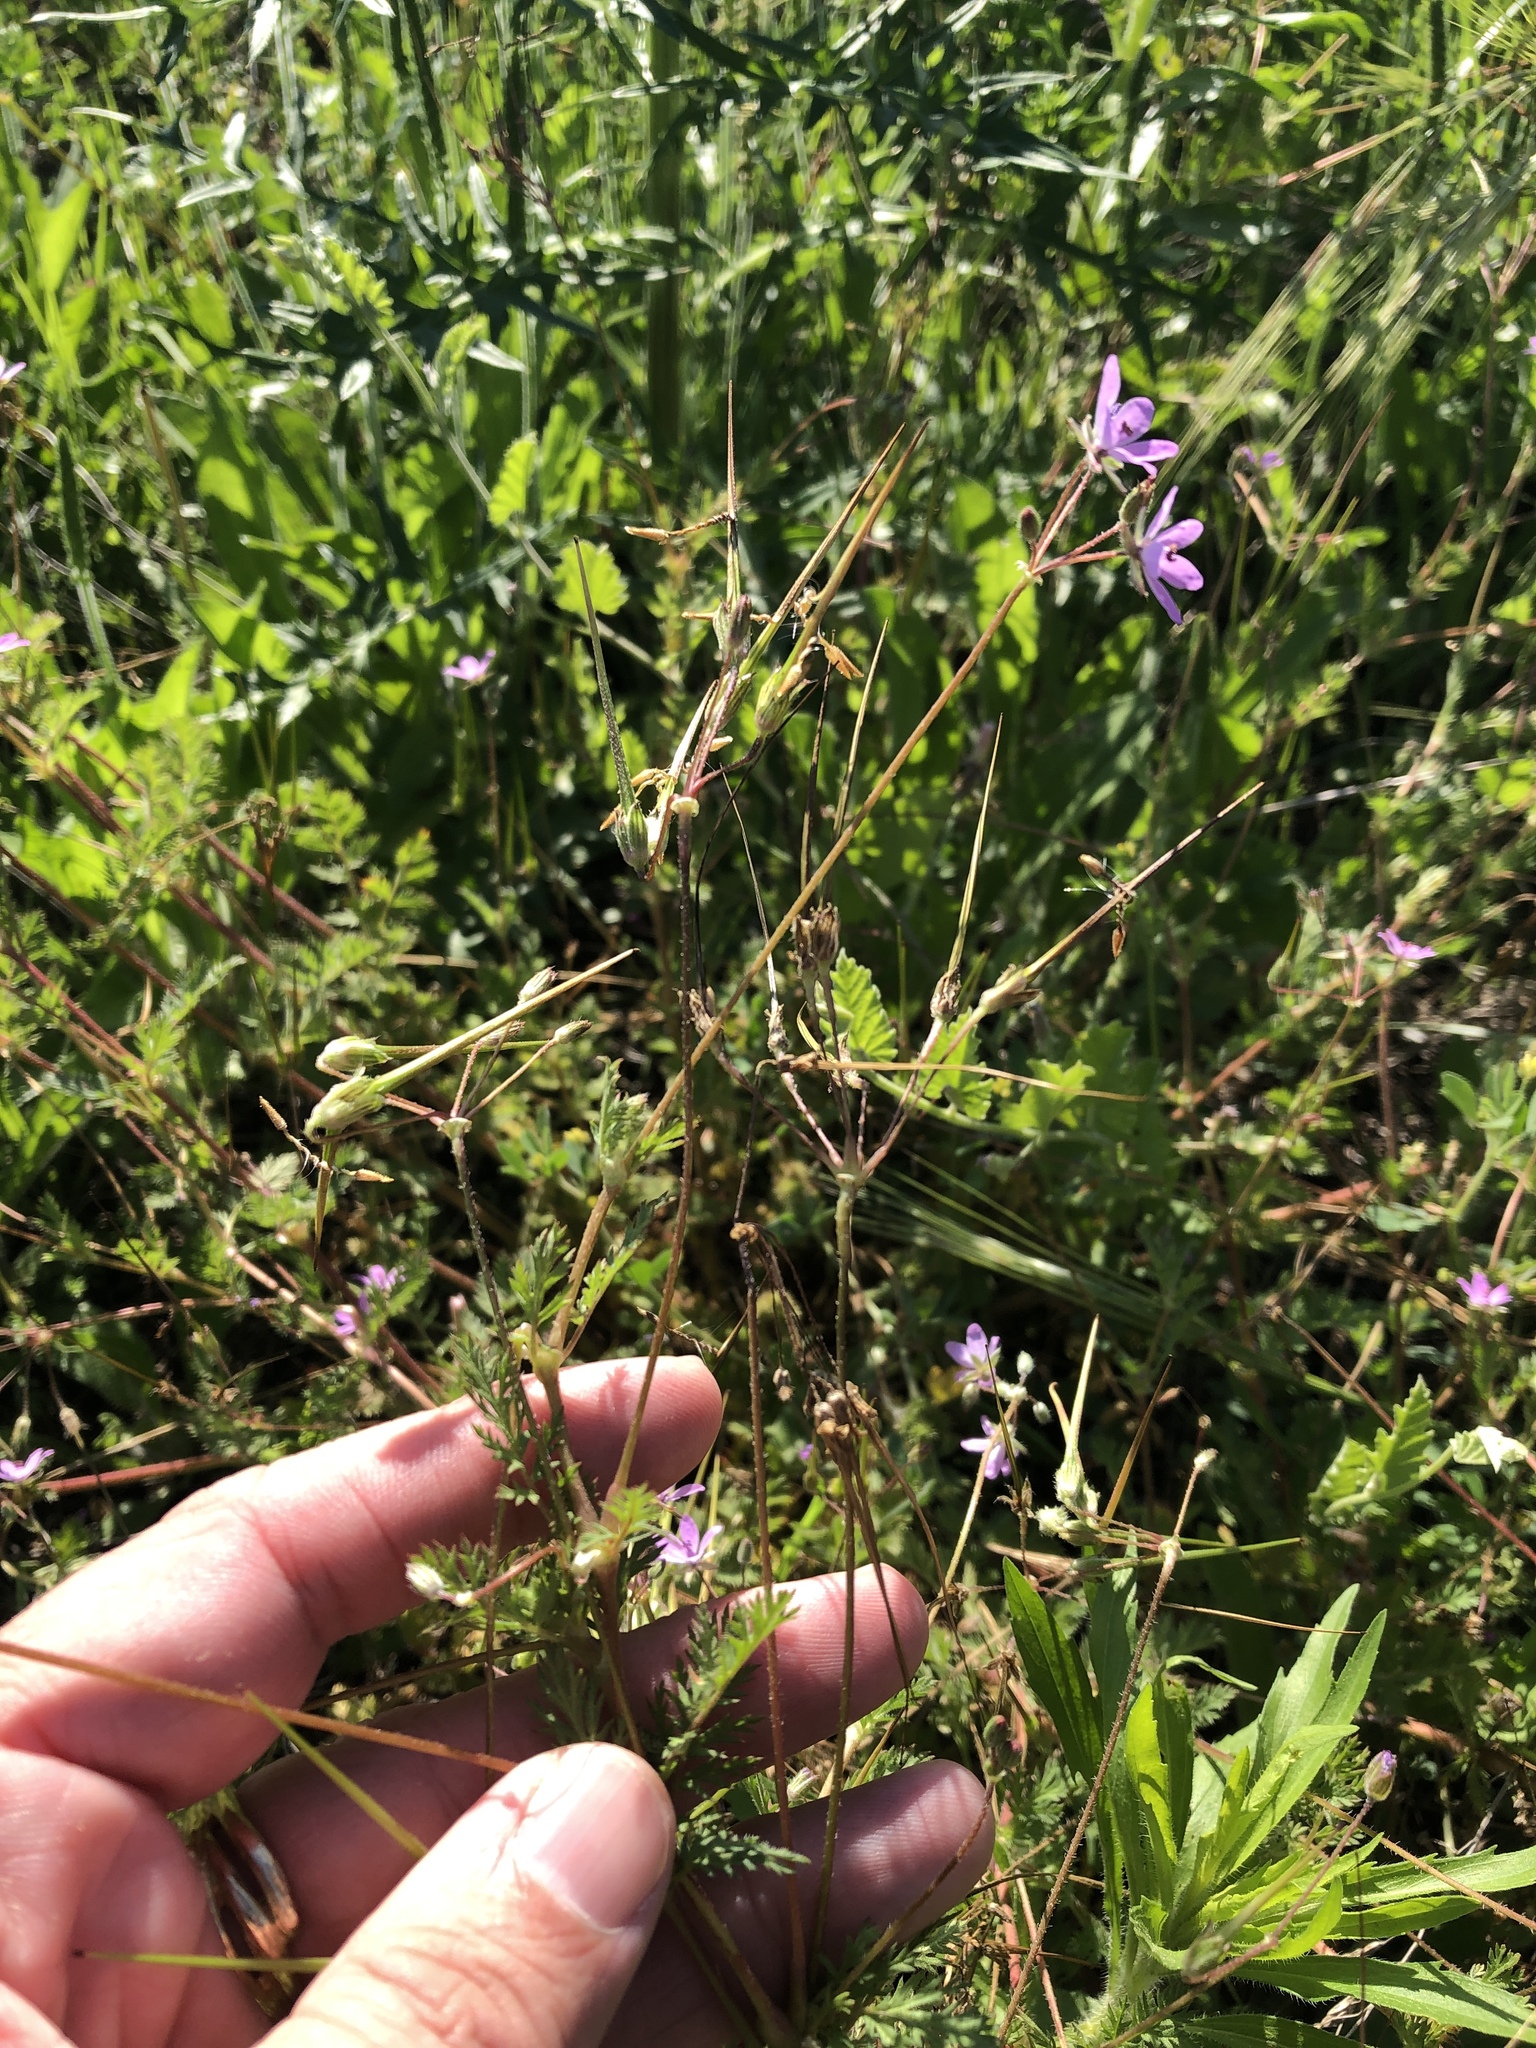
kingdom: Plantae
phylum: Tracheophyta
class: Magnoliopsida
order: Geraniales
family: Geraniaceae
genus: Erodium
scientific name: Erodium cicutarium
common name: Common stork's-bill
